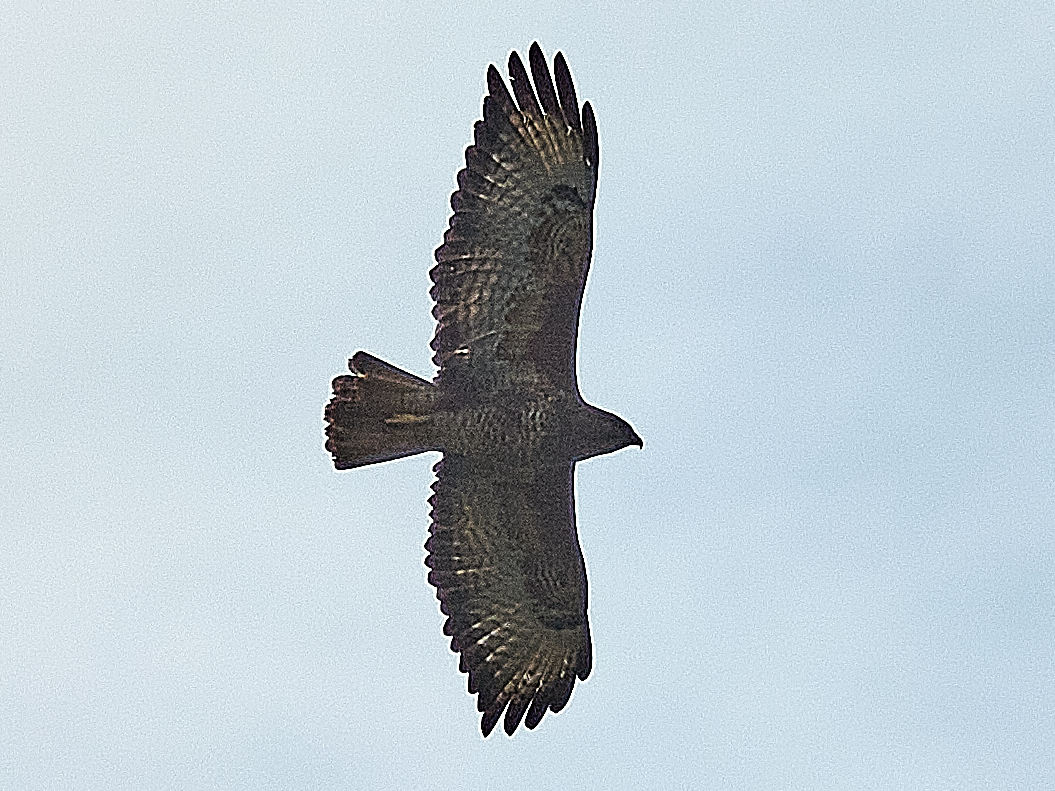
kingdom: Animalia
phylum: Chordata
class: Aves
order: Accipitriformes
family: Accipitridae
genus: Buteo
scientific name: Buteo buteo
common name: Common buzzard
